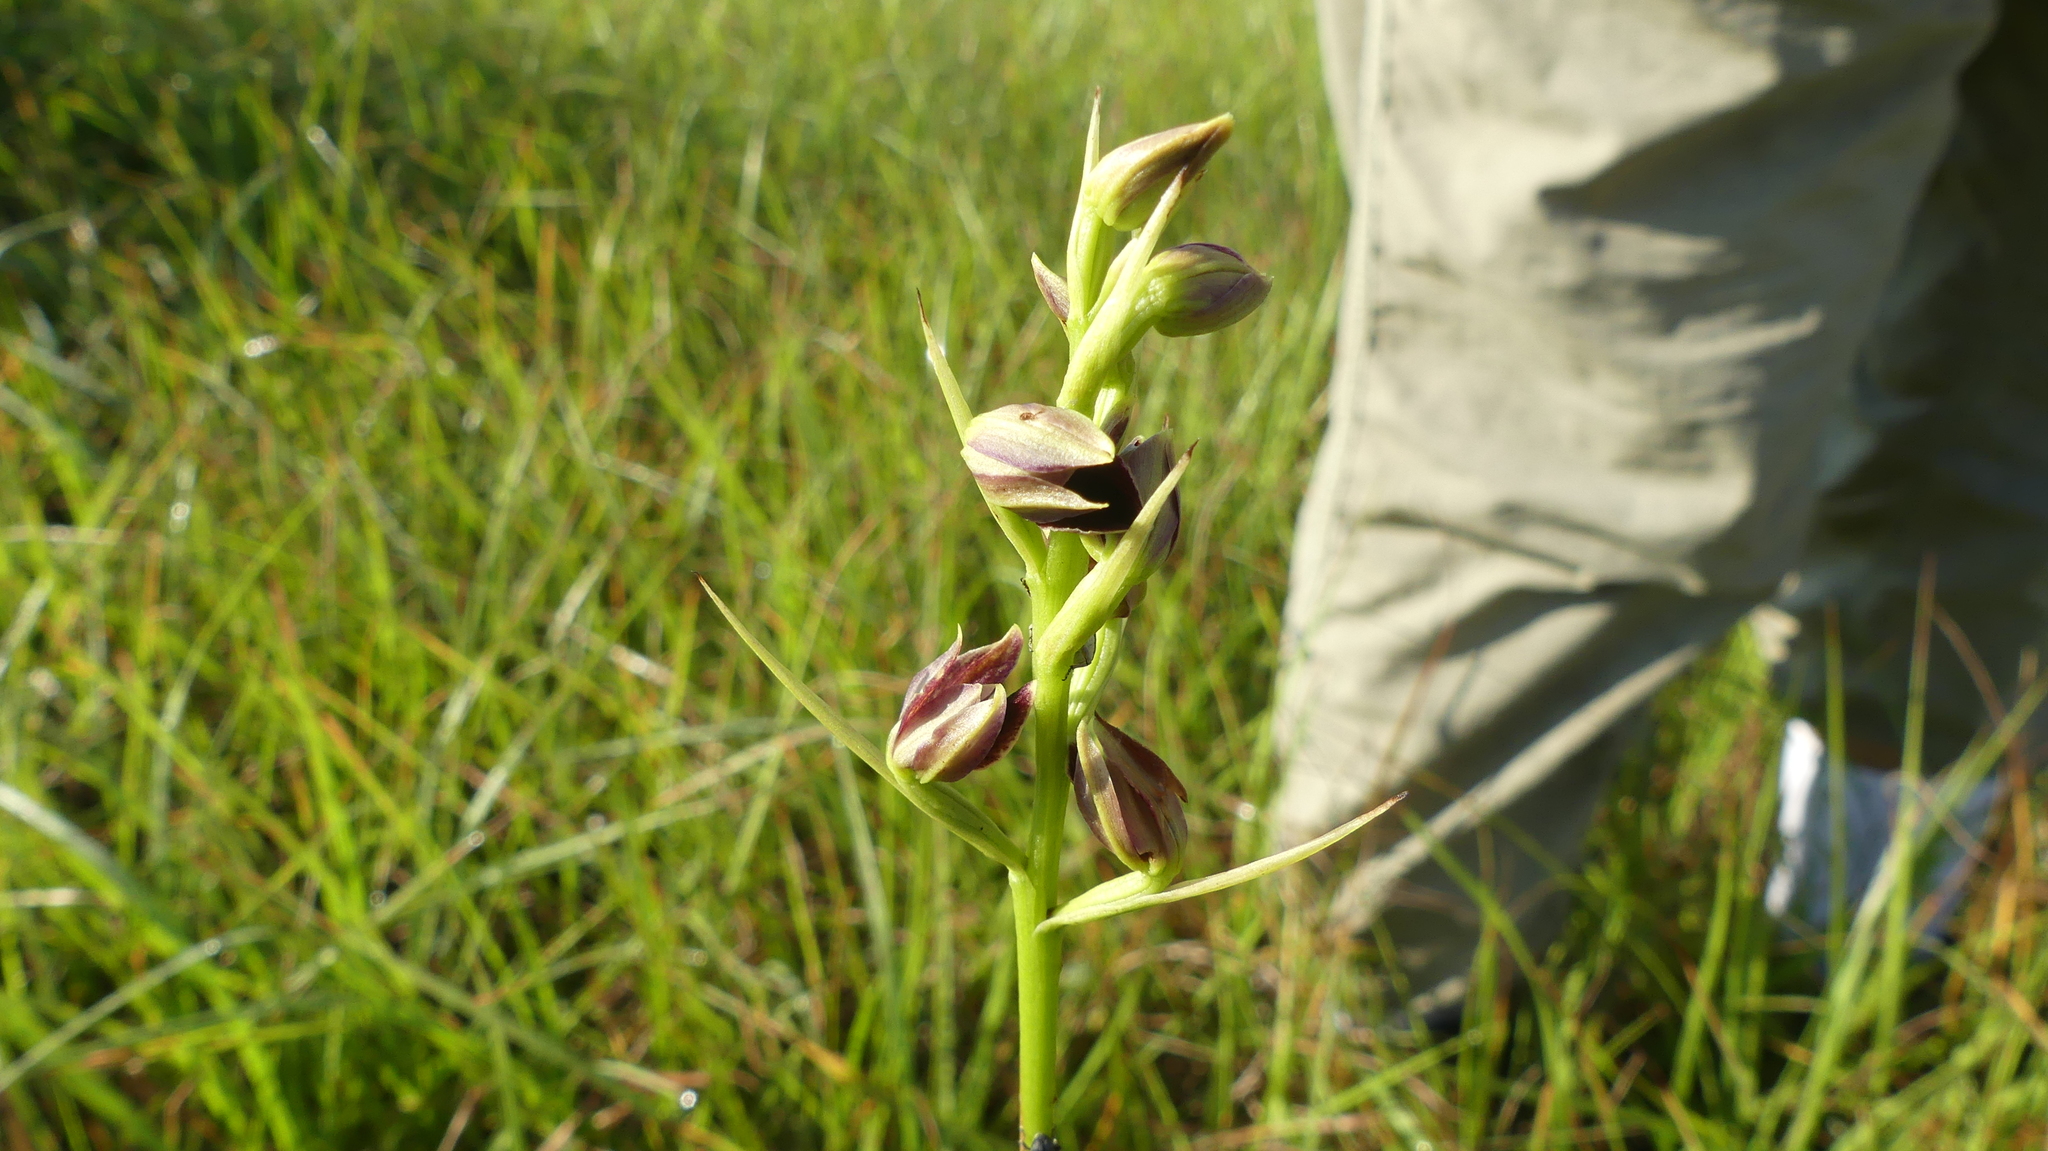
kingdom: Plantae
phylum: Tracheophyta
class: Liliopsida
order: Asparagales
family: Orchidaceae
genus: Eulophia
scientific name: Eulophia ecristata
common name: Giant orchid
